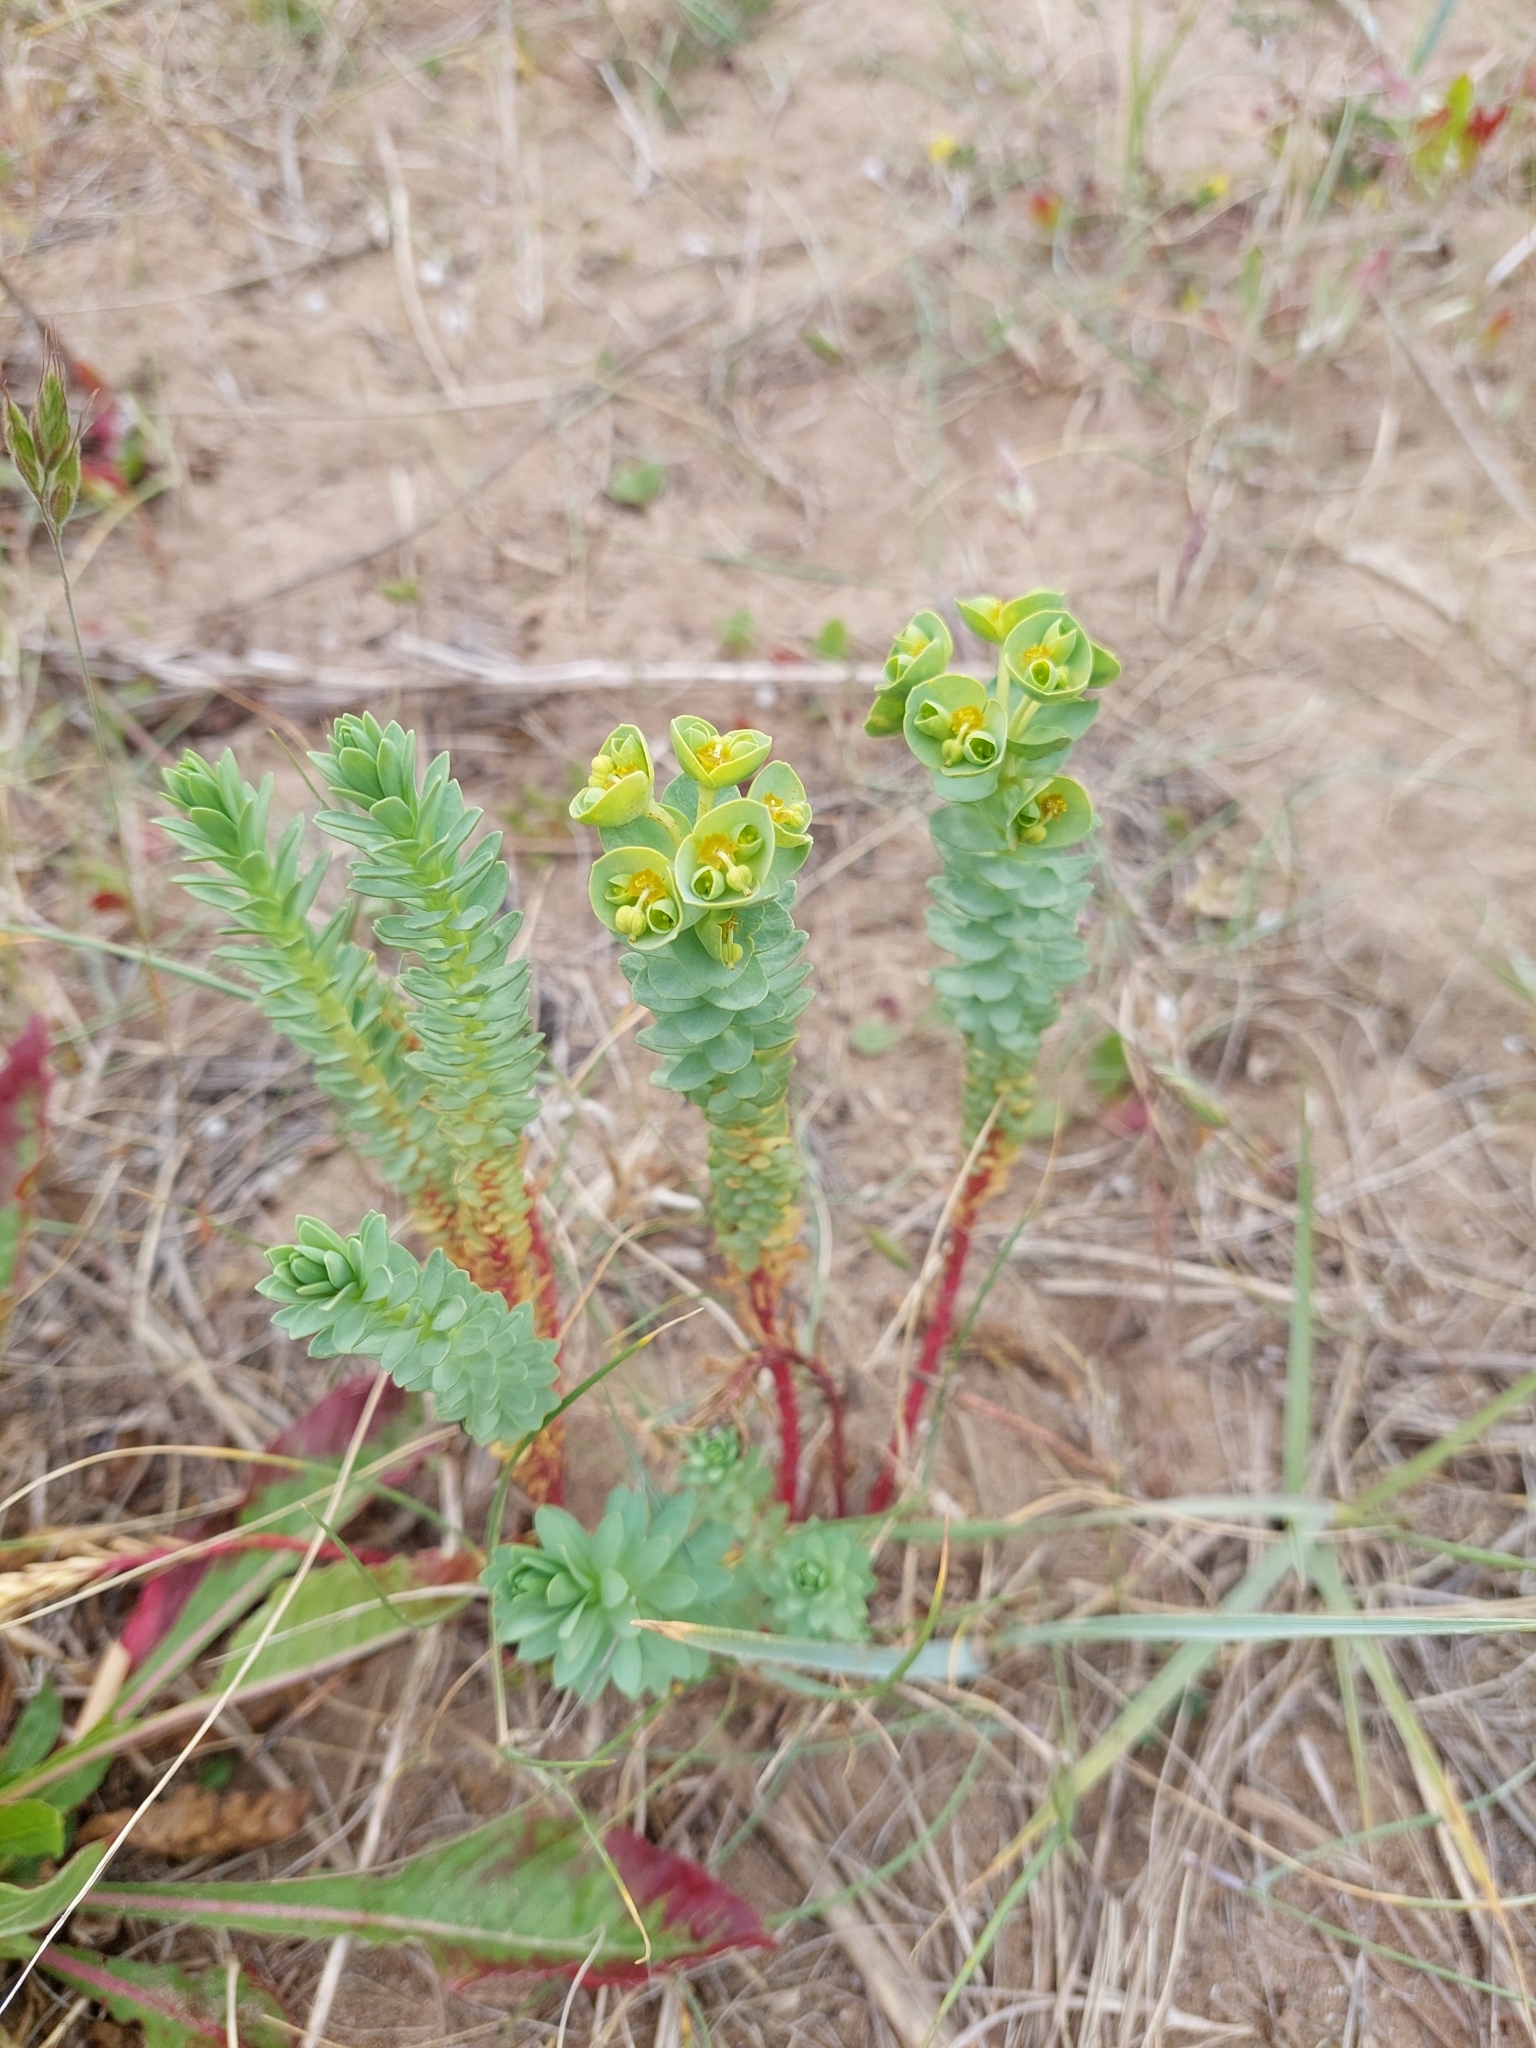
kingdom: Plantae
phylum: Tracheophyta
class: Magnoliopsida
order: Malpighiales
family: Euphorbiaceae
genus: Euphorbia
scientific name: Euphorbia paralias
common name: Sea spurge
